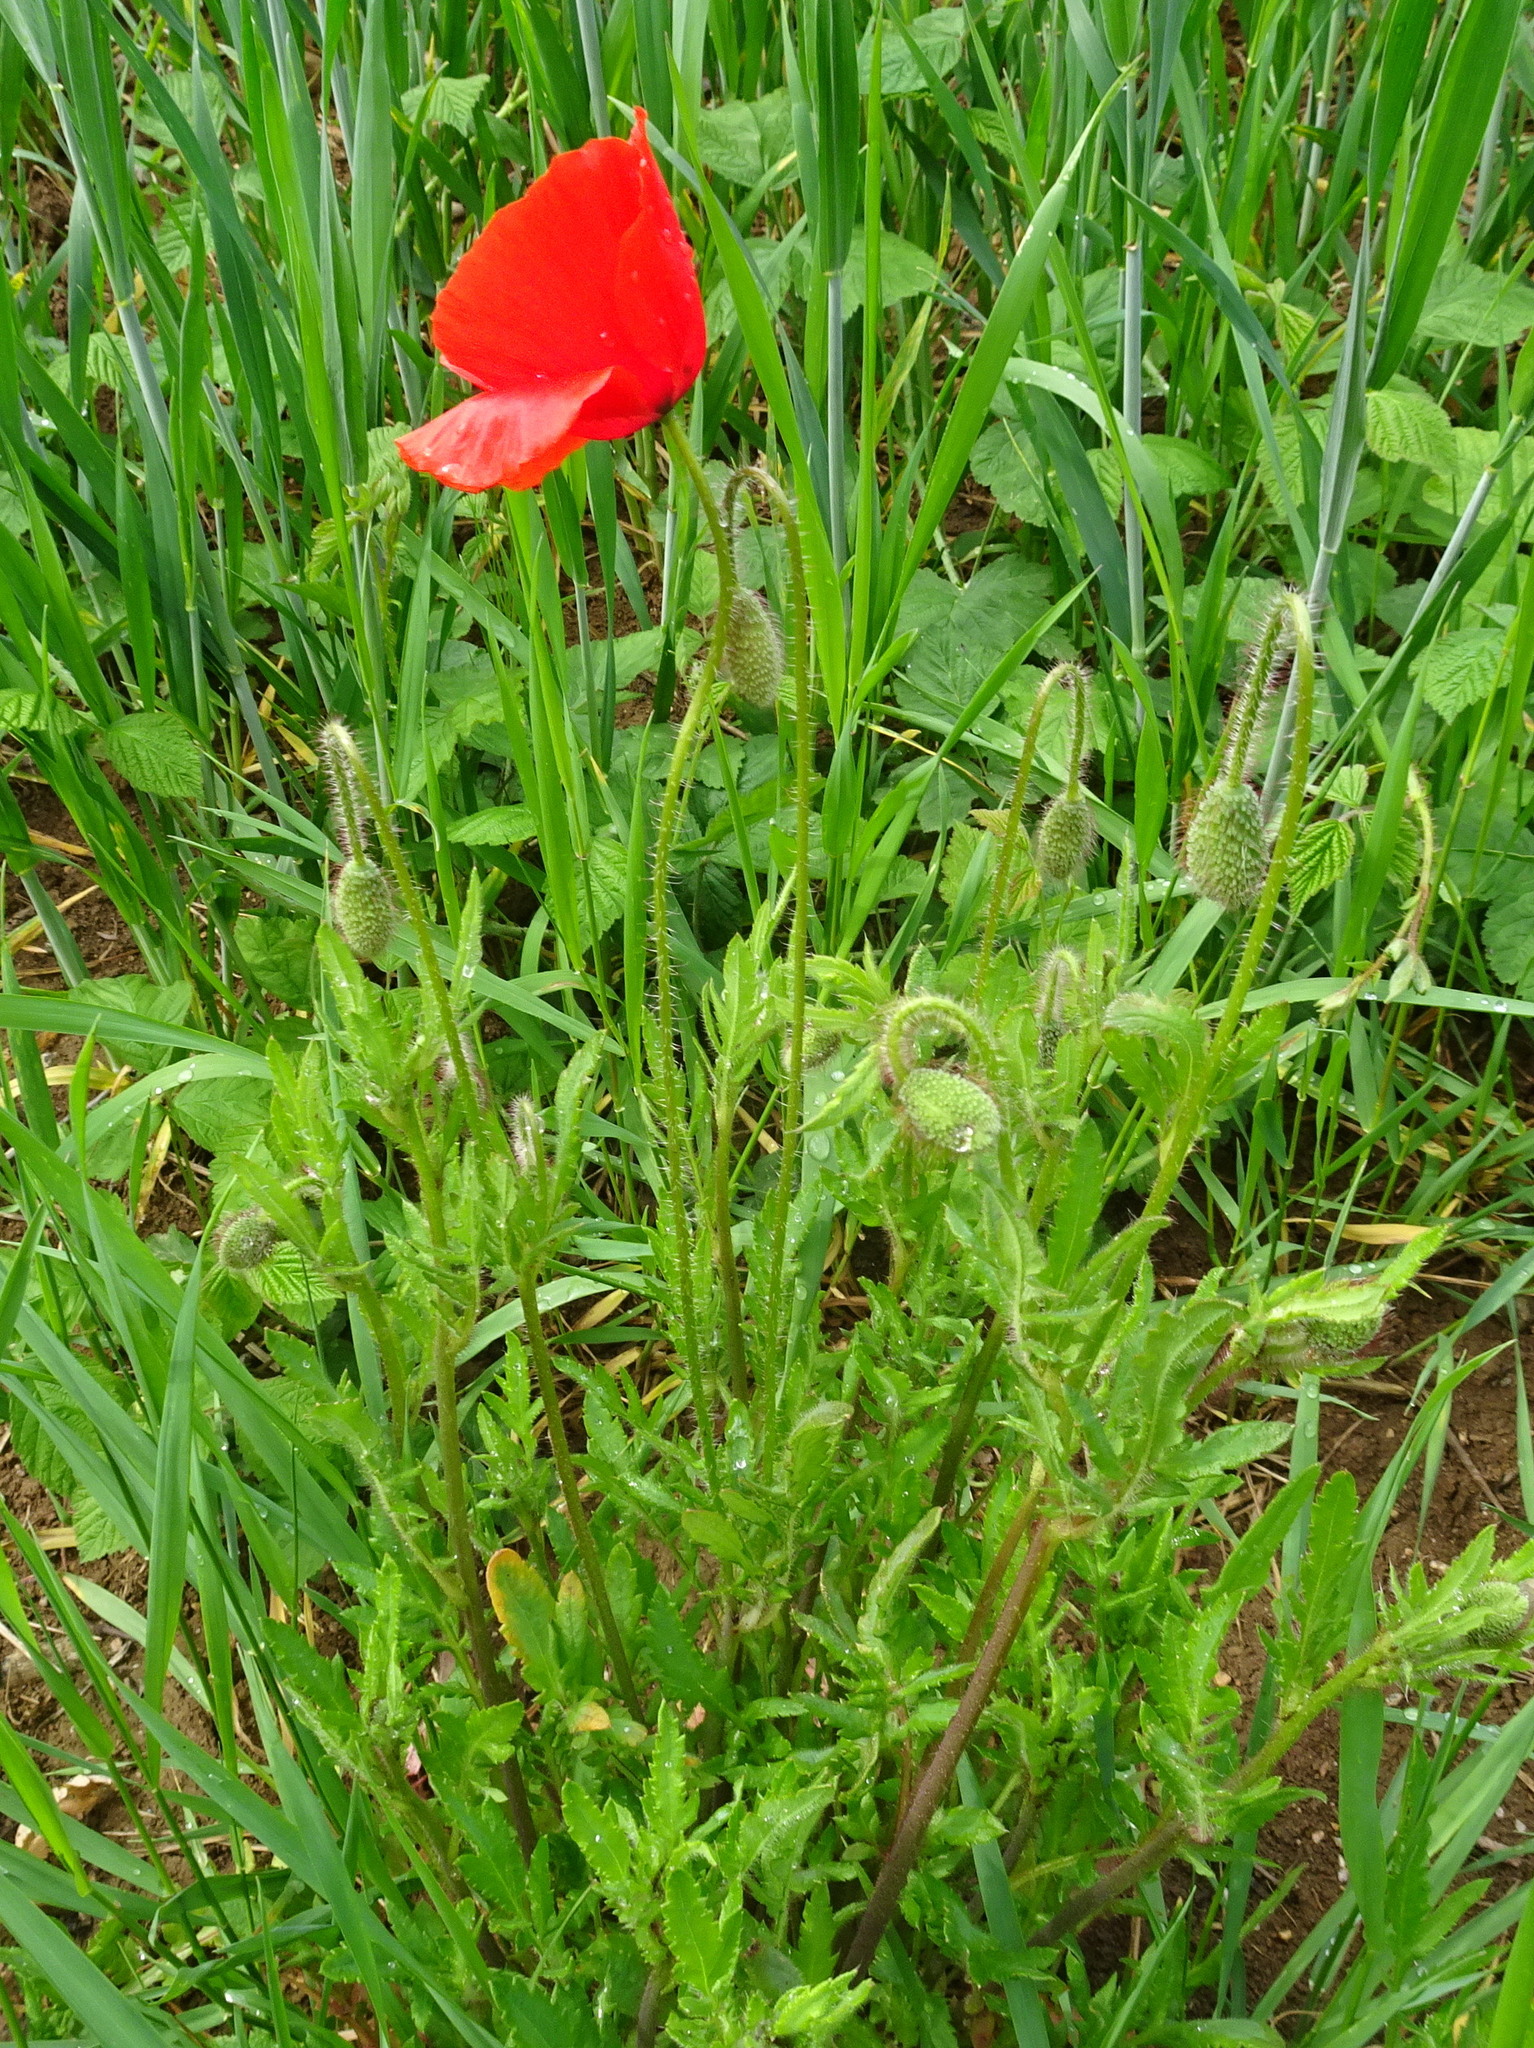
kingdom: Plantae
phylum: Tracheophyta
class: Magnoliopsida
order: Ranunculales
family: Papaveraceae
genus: Papaver
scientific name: Papaver rhoeas
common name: Corn poppy
